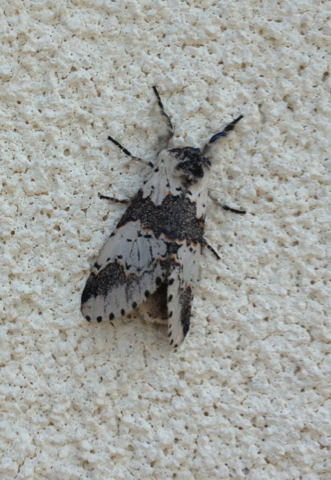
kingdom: Animalia
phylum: Arthropoda
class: Insecta
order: Lepidoptera
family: Notodontidae
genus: Furcula
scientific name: Furcula borealis
